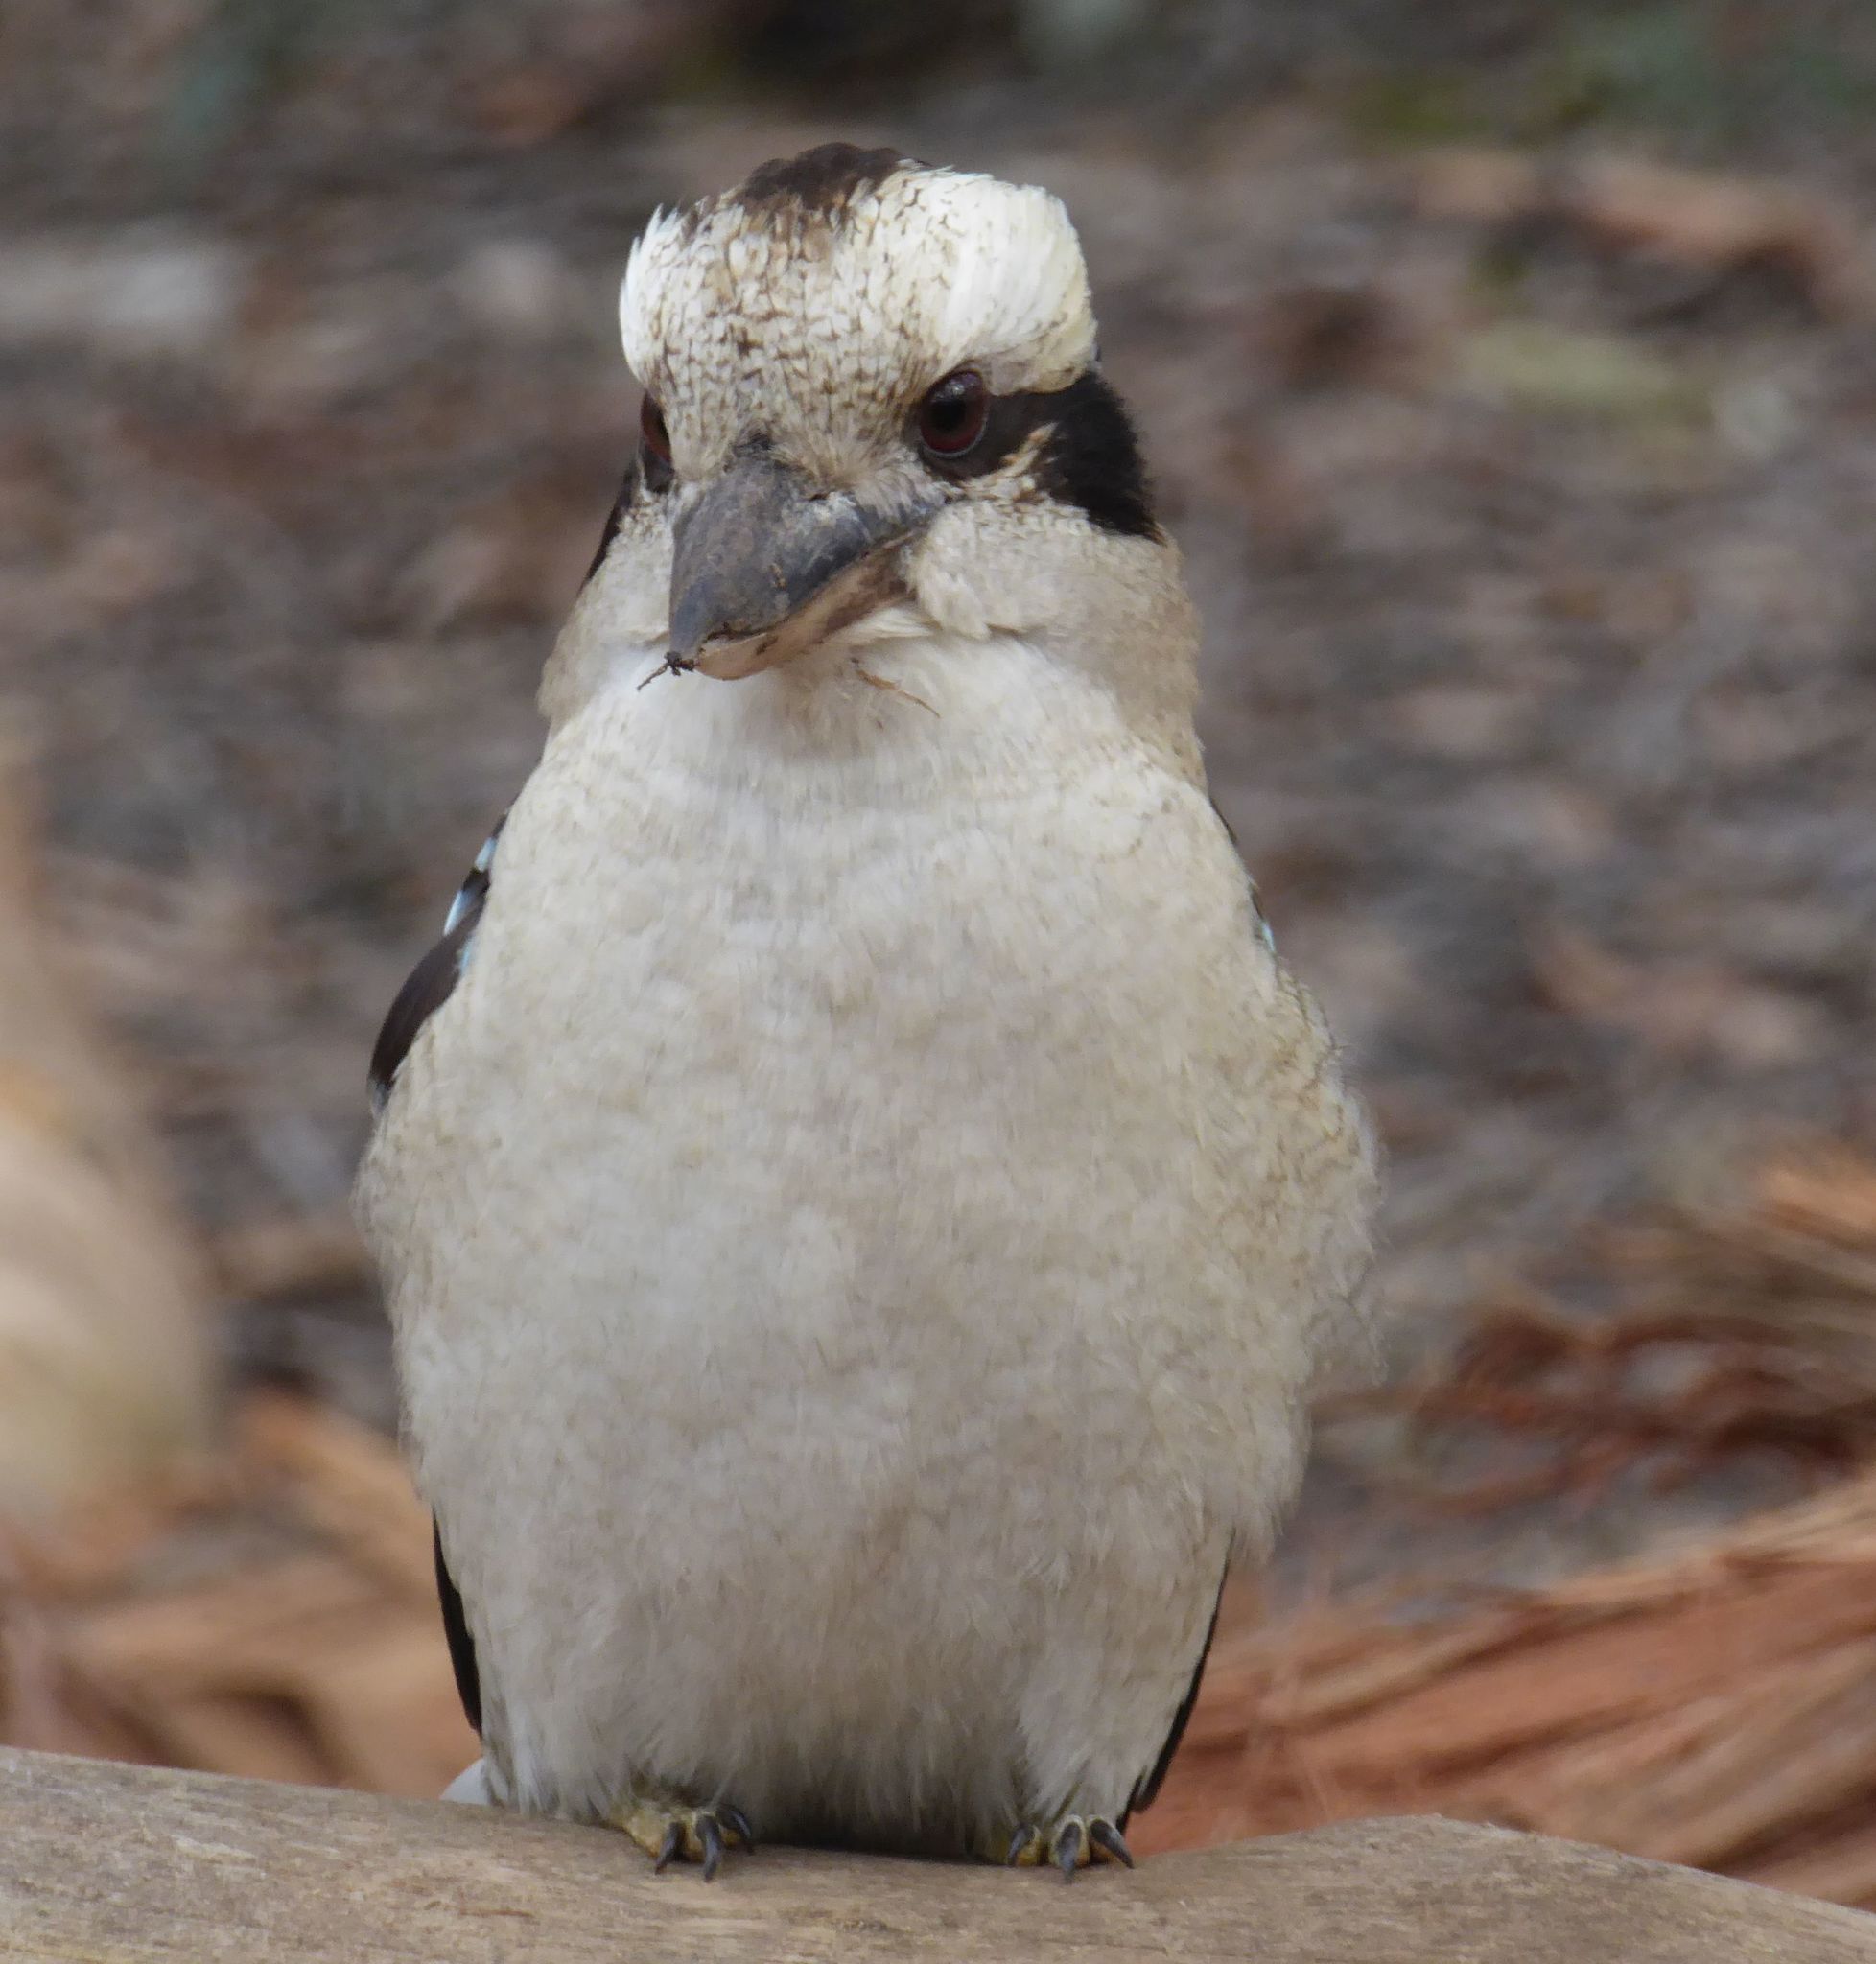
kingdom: Animalia
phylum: Chordata
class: Aves
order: Coraciiformes
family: Alcedinidae
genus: Dacelo
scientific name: Dacelo novaeguineae
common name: Laughing kookaburra
